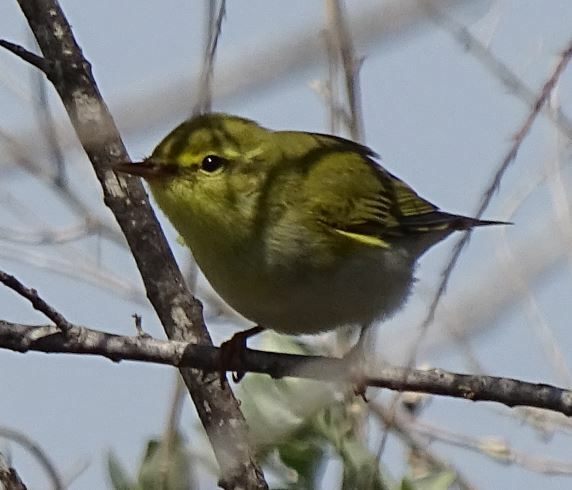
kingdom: Animalia
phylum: Chordata
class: Aves
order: Passeriformes
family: Phylloscopidae
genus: Phylloscopus
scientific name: Phylloscopus trochilus
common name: Willow warbler
